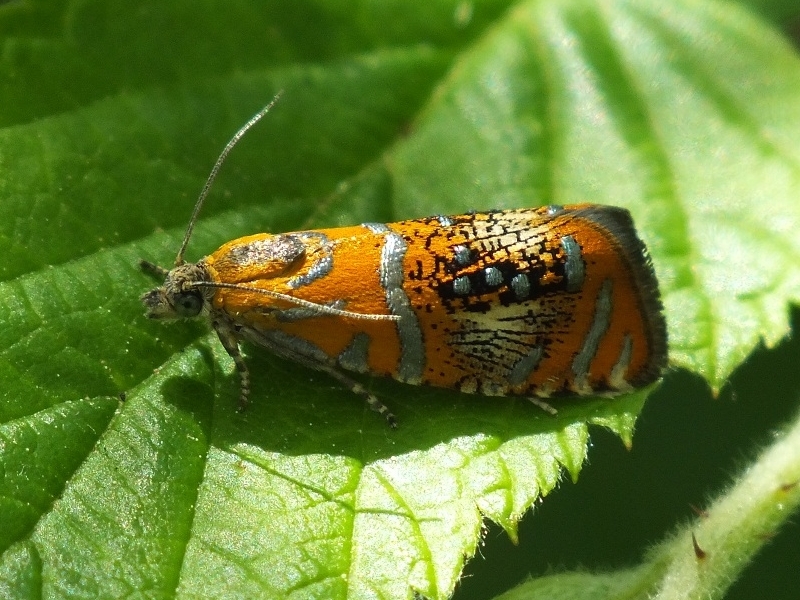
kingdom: Animalia
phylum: Arthropoda
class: Insecta
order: Lepidoptera
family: Tortricidae
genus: Olethreutes
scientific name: Olethreutes arcuella
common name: Arched marble
